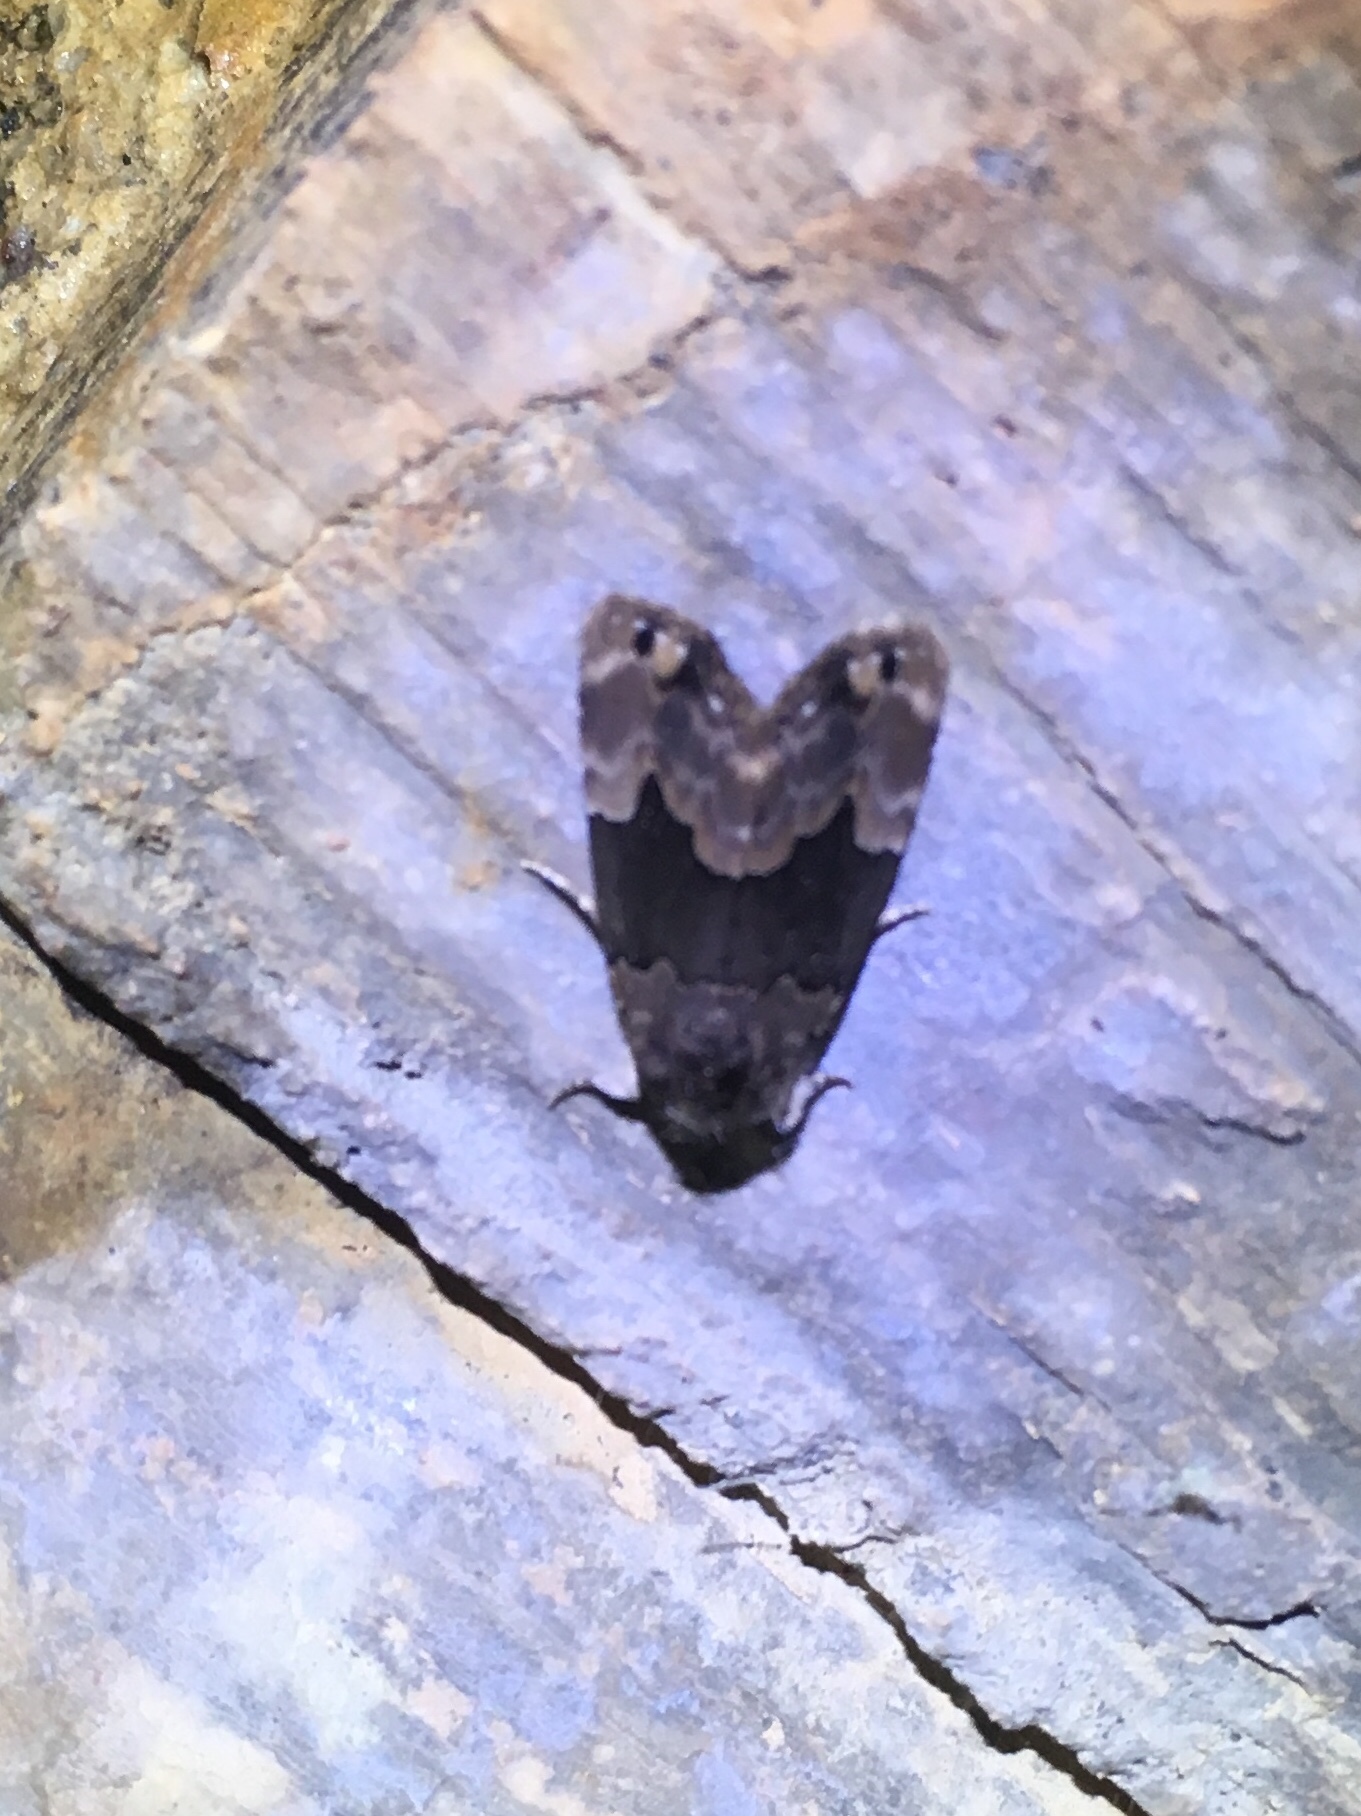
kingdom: Animalia
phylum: Arthropoda
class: Insecta
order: Lepidoptera
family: Erebidae
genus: Dinumma
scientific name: Dinumma deponens
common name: Purplish moth
